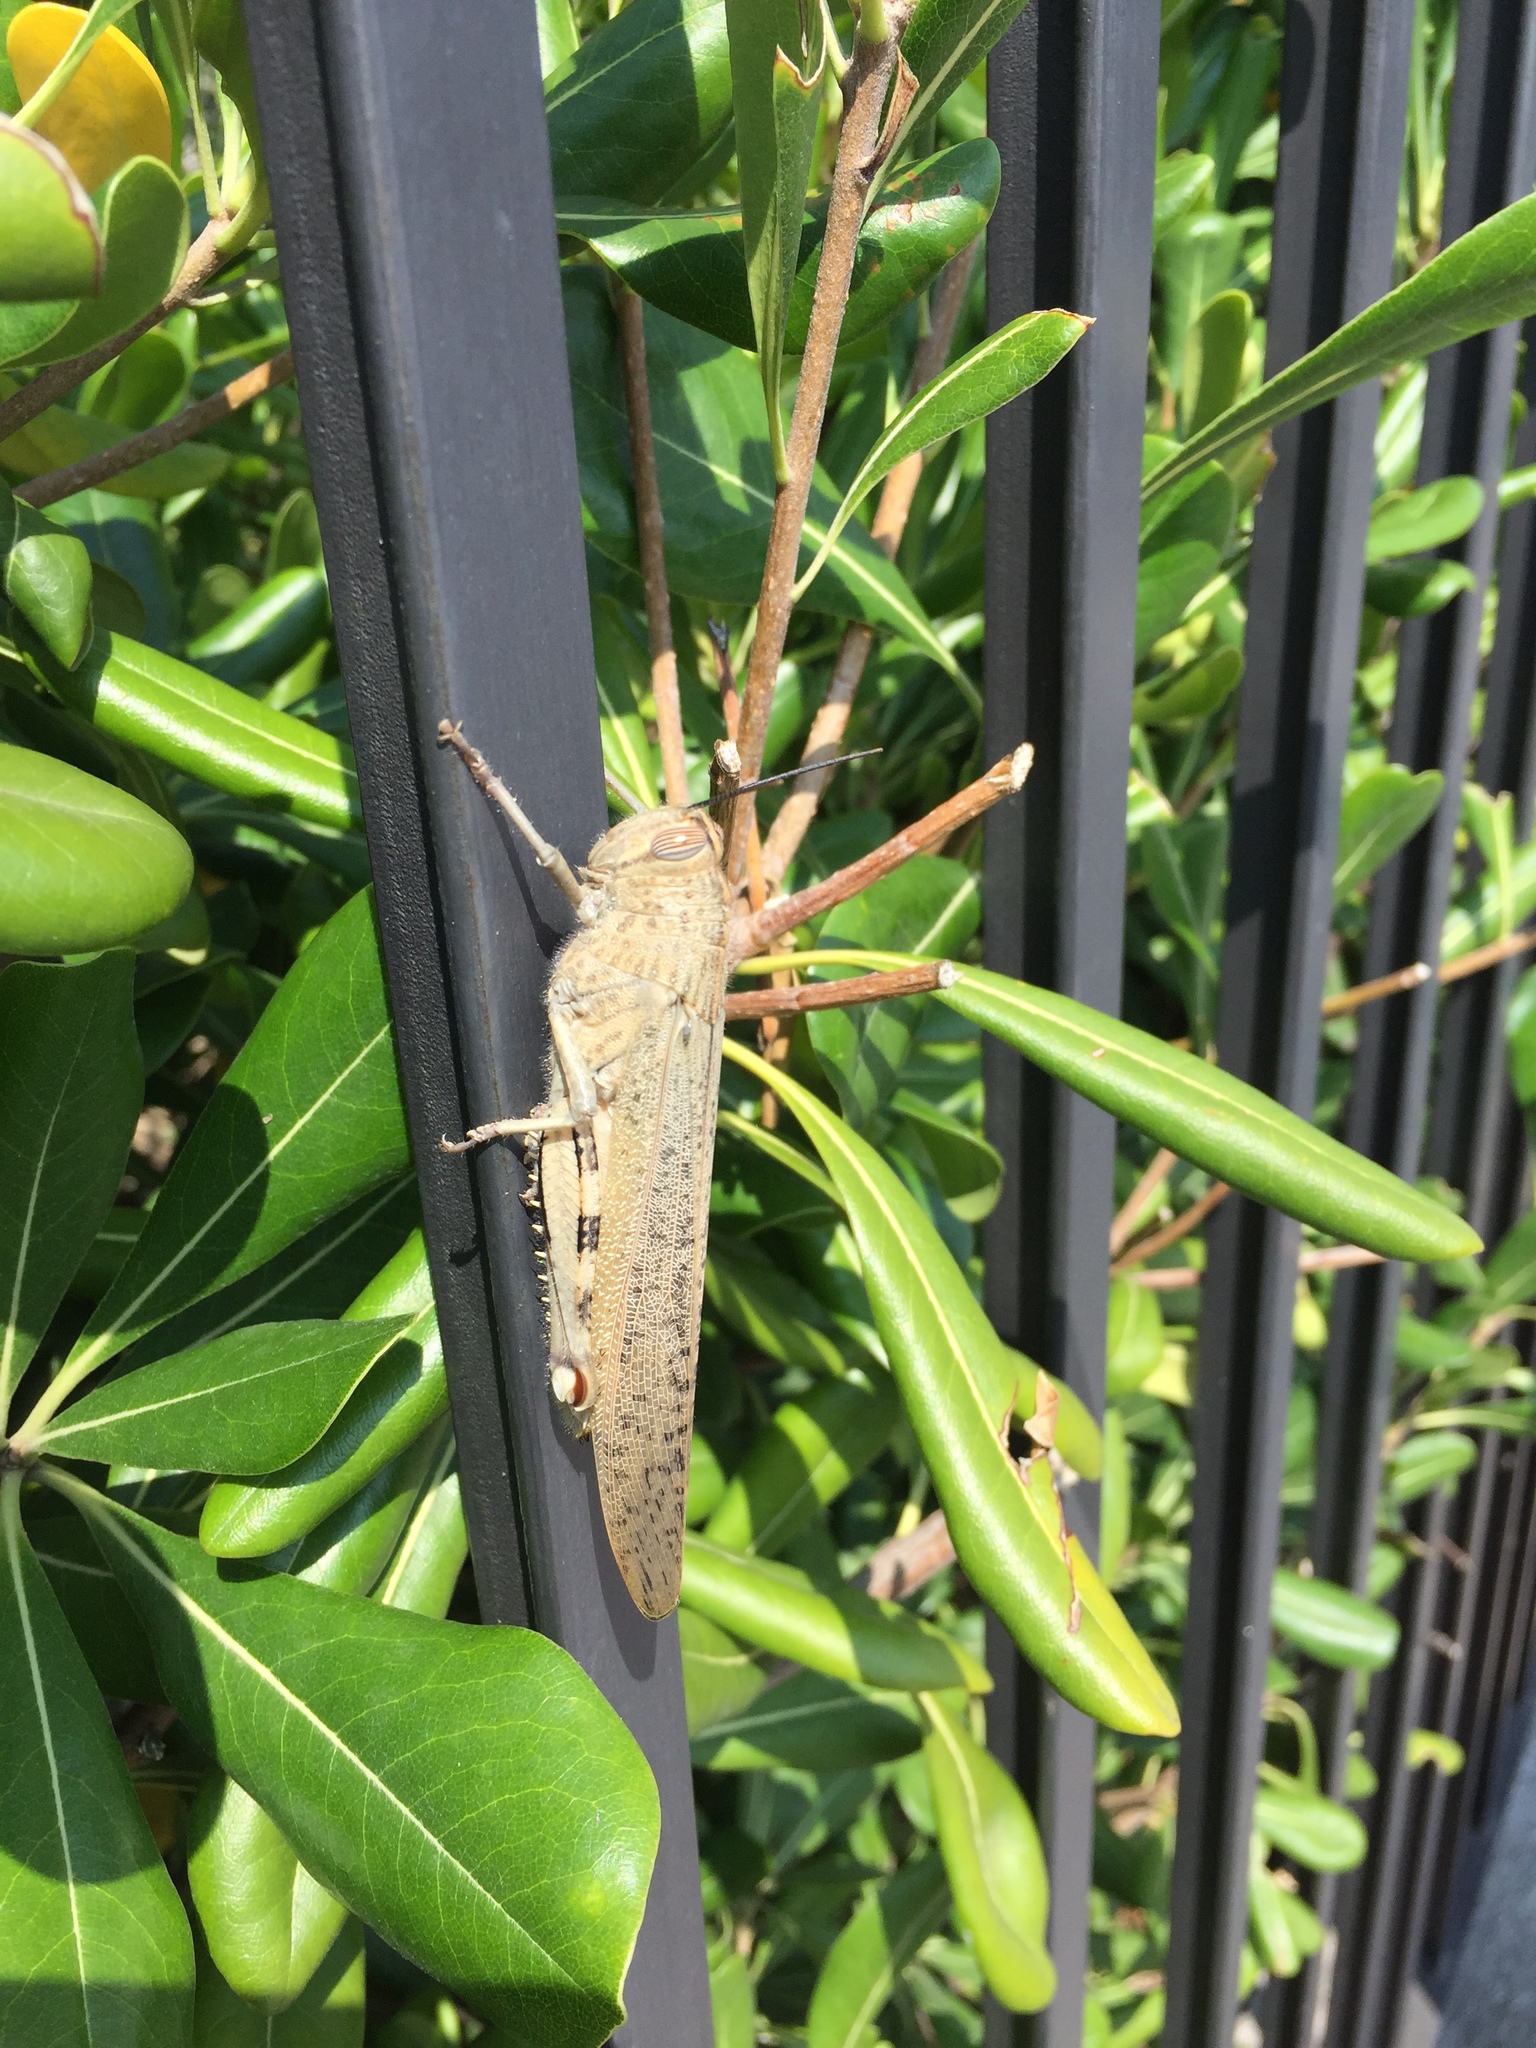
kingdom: Animalia
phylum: Arthropoda
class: Insecta
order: Orthoptera
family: Acrididae
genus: Anacridium
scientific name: Anacridium aegyptium
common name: Egyptian grasshopper
